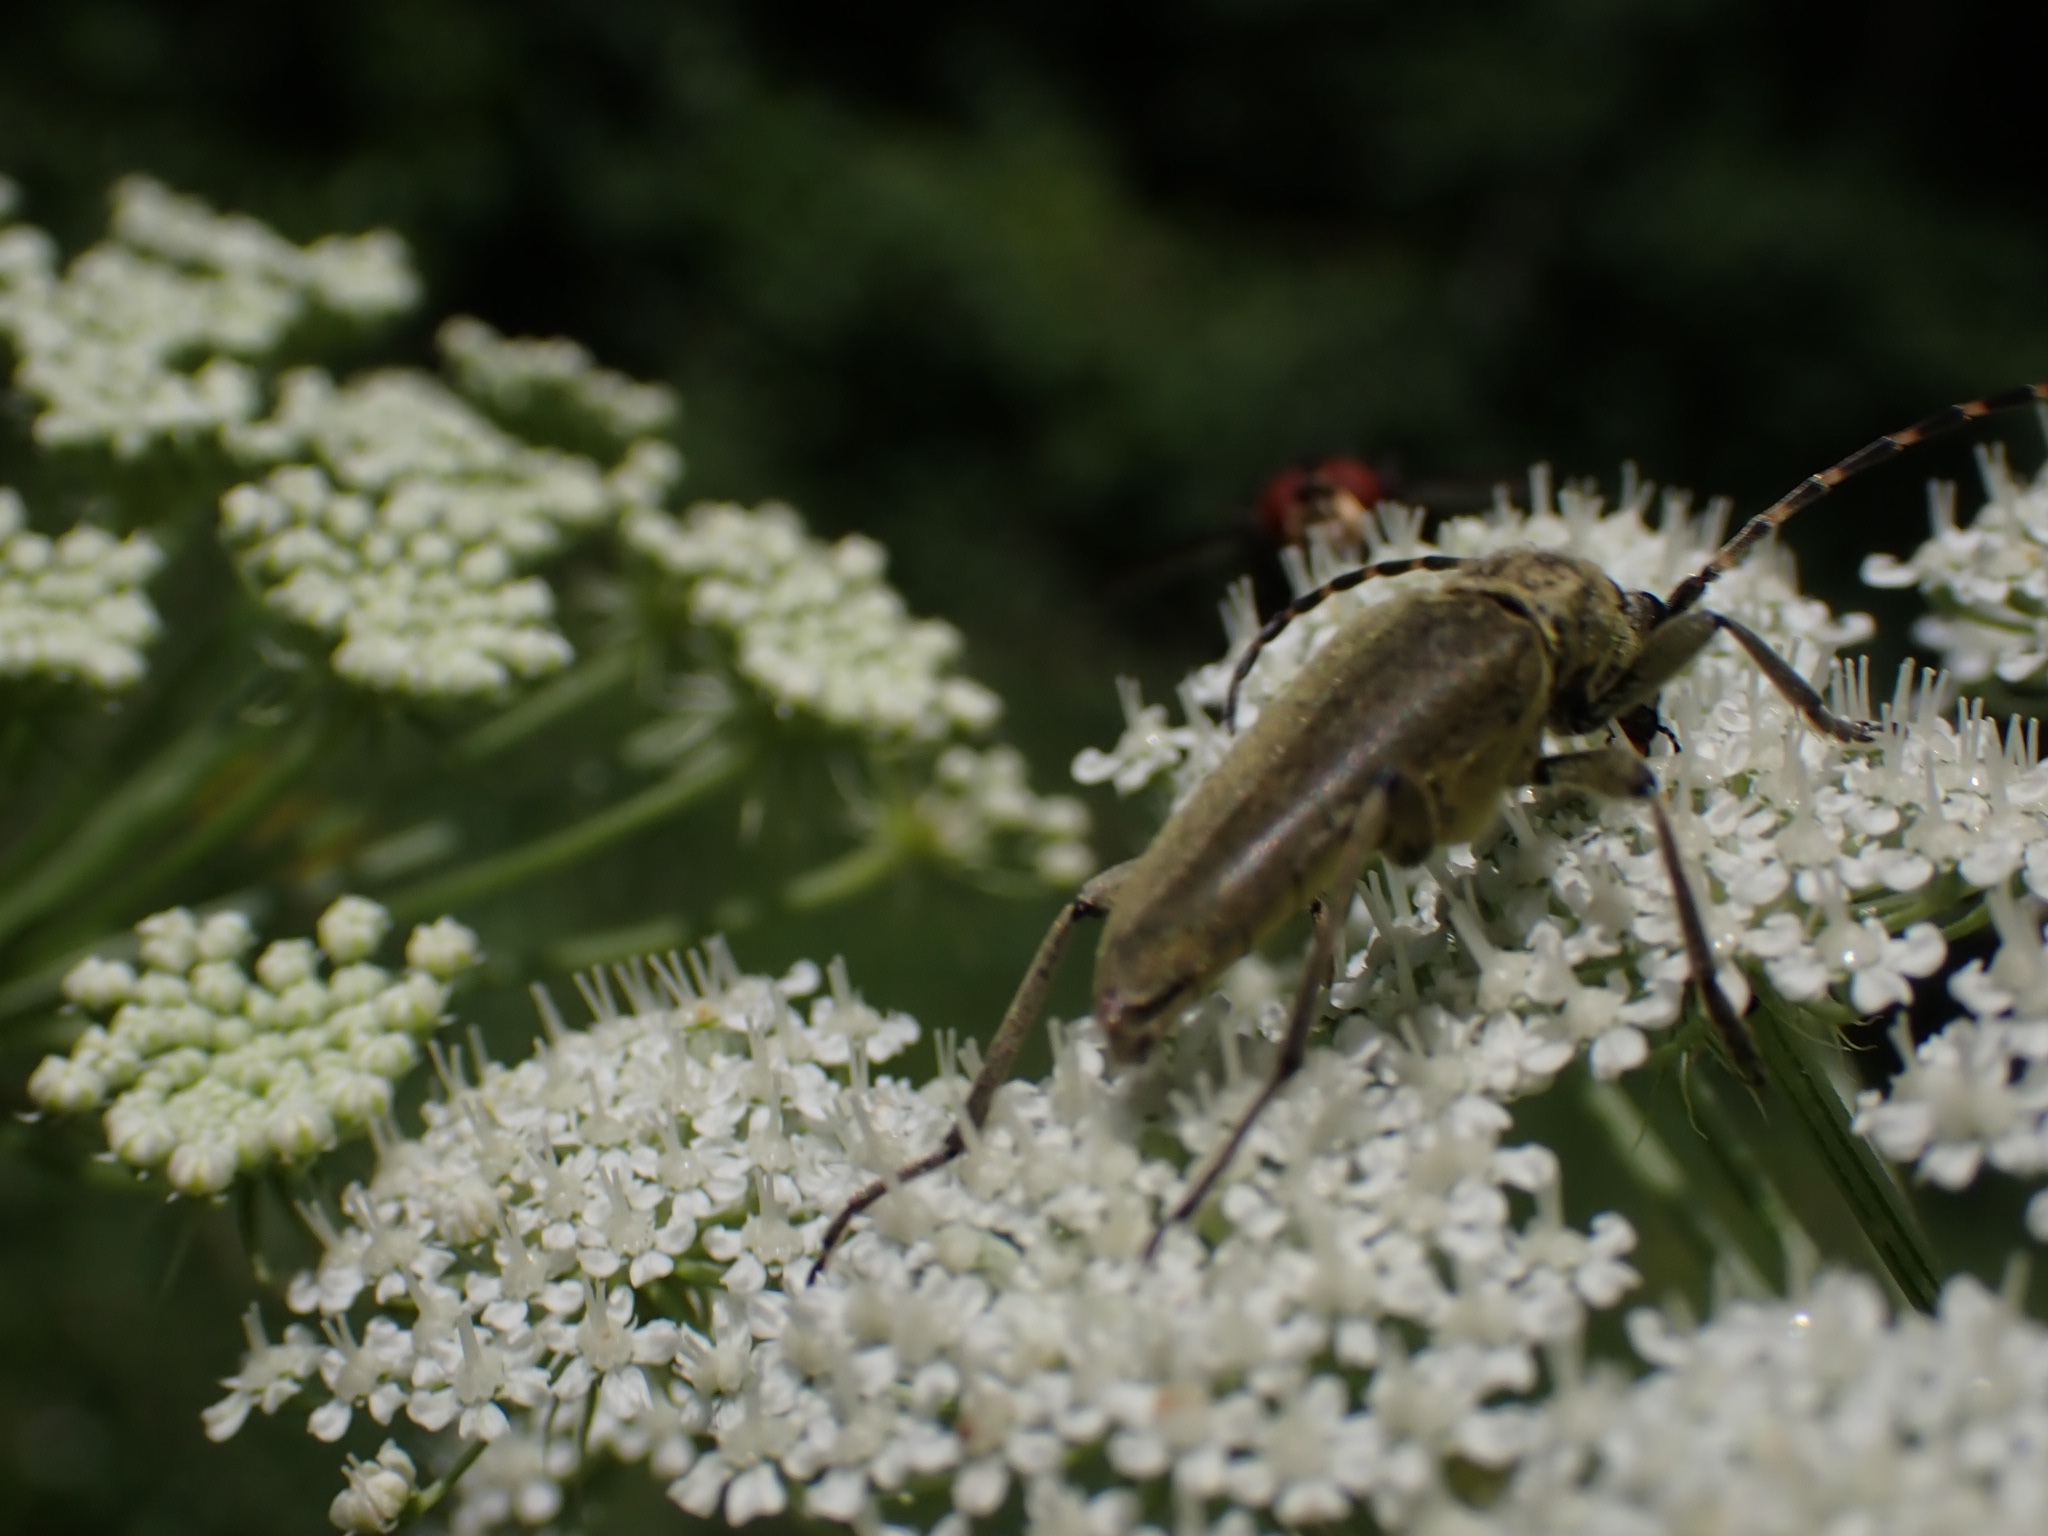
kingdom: Animalia
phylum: Arthropoda
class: Insecta
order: Coleoptera
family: Cerambycidae
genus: Lepturobosca
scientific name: Lepturobosca virens
